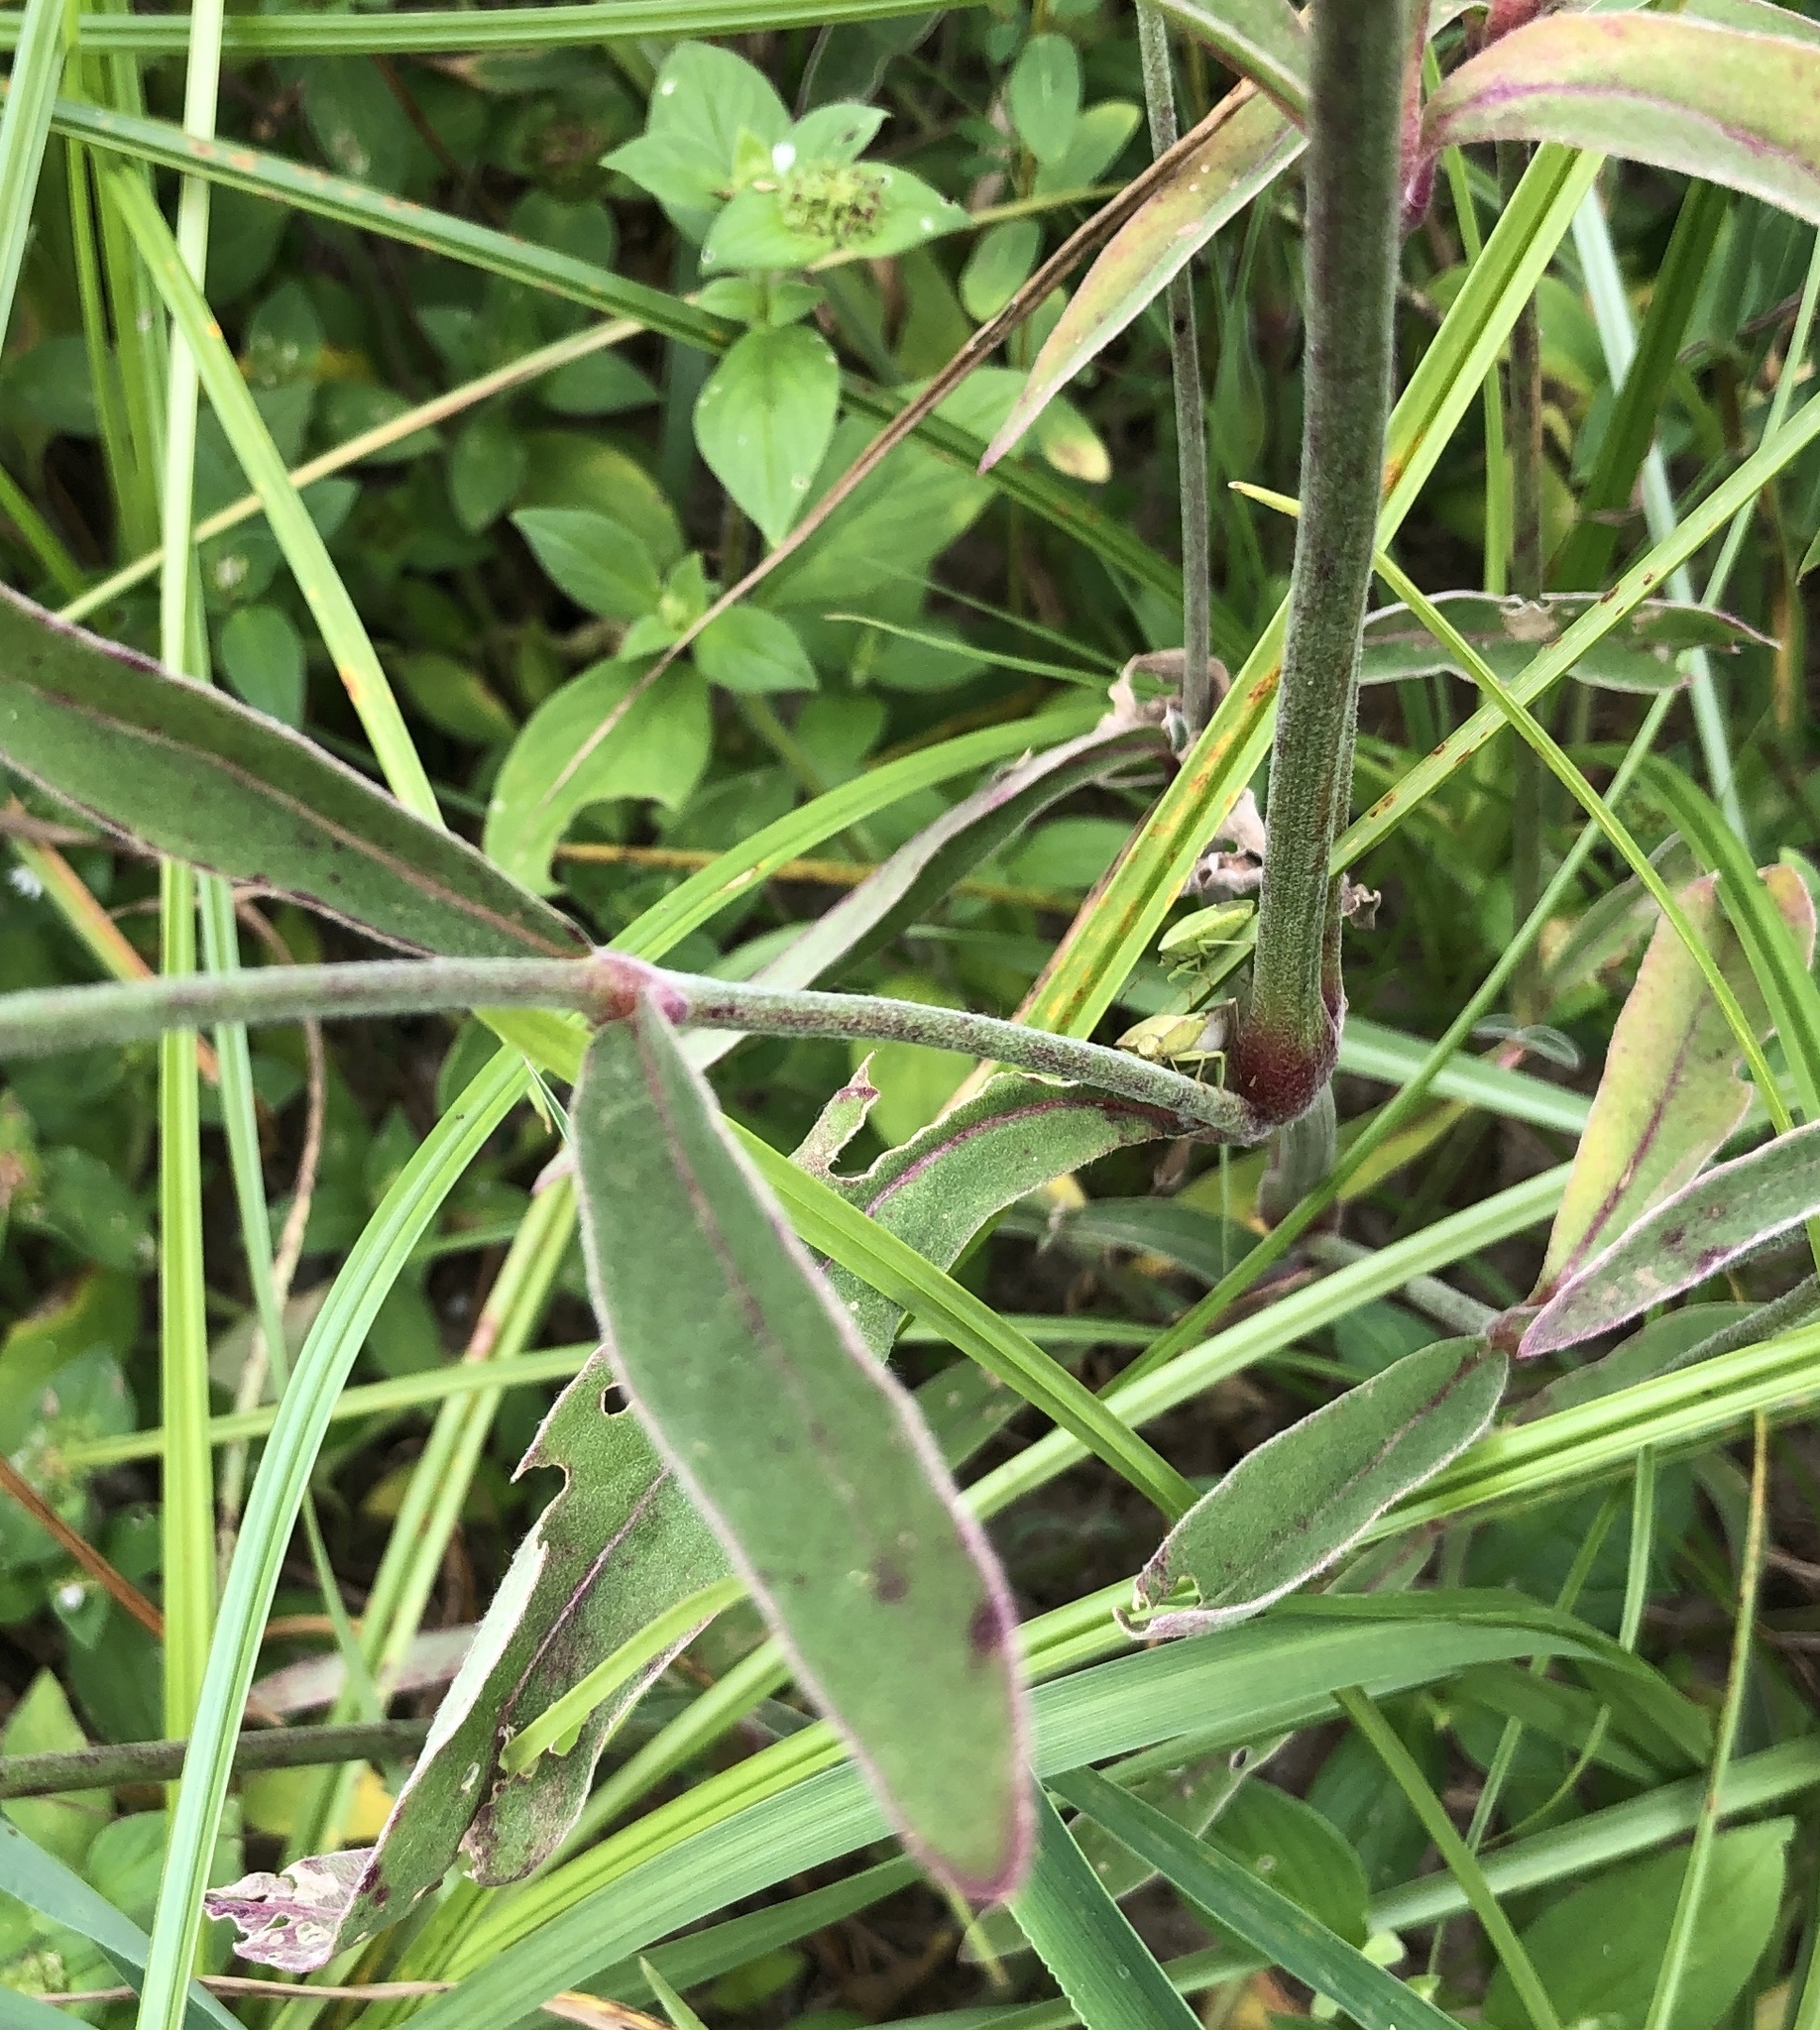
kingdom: Plantae
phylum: Tracheophyta
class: Magnoliopsida
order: Caryophyllales
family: Amaranthaceae
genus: Froelichia
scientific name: Froelichia floridana
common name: Florida snake-cotton
